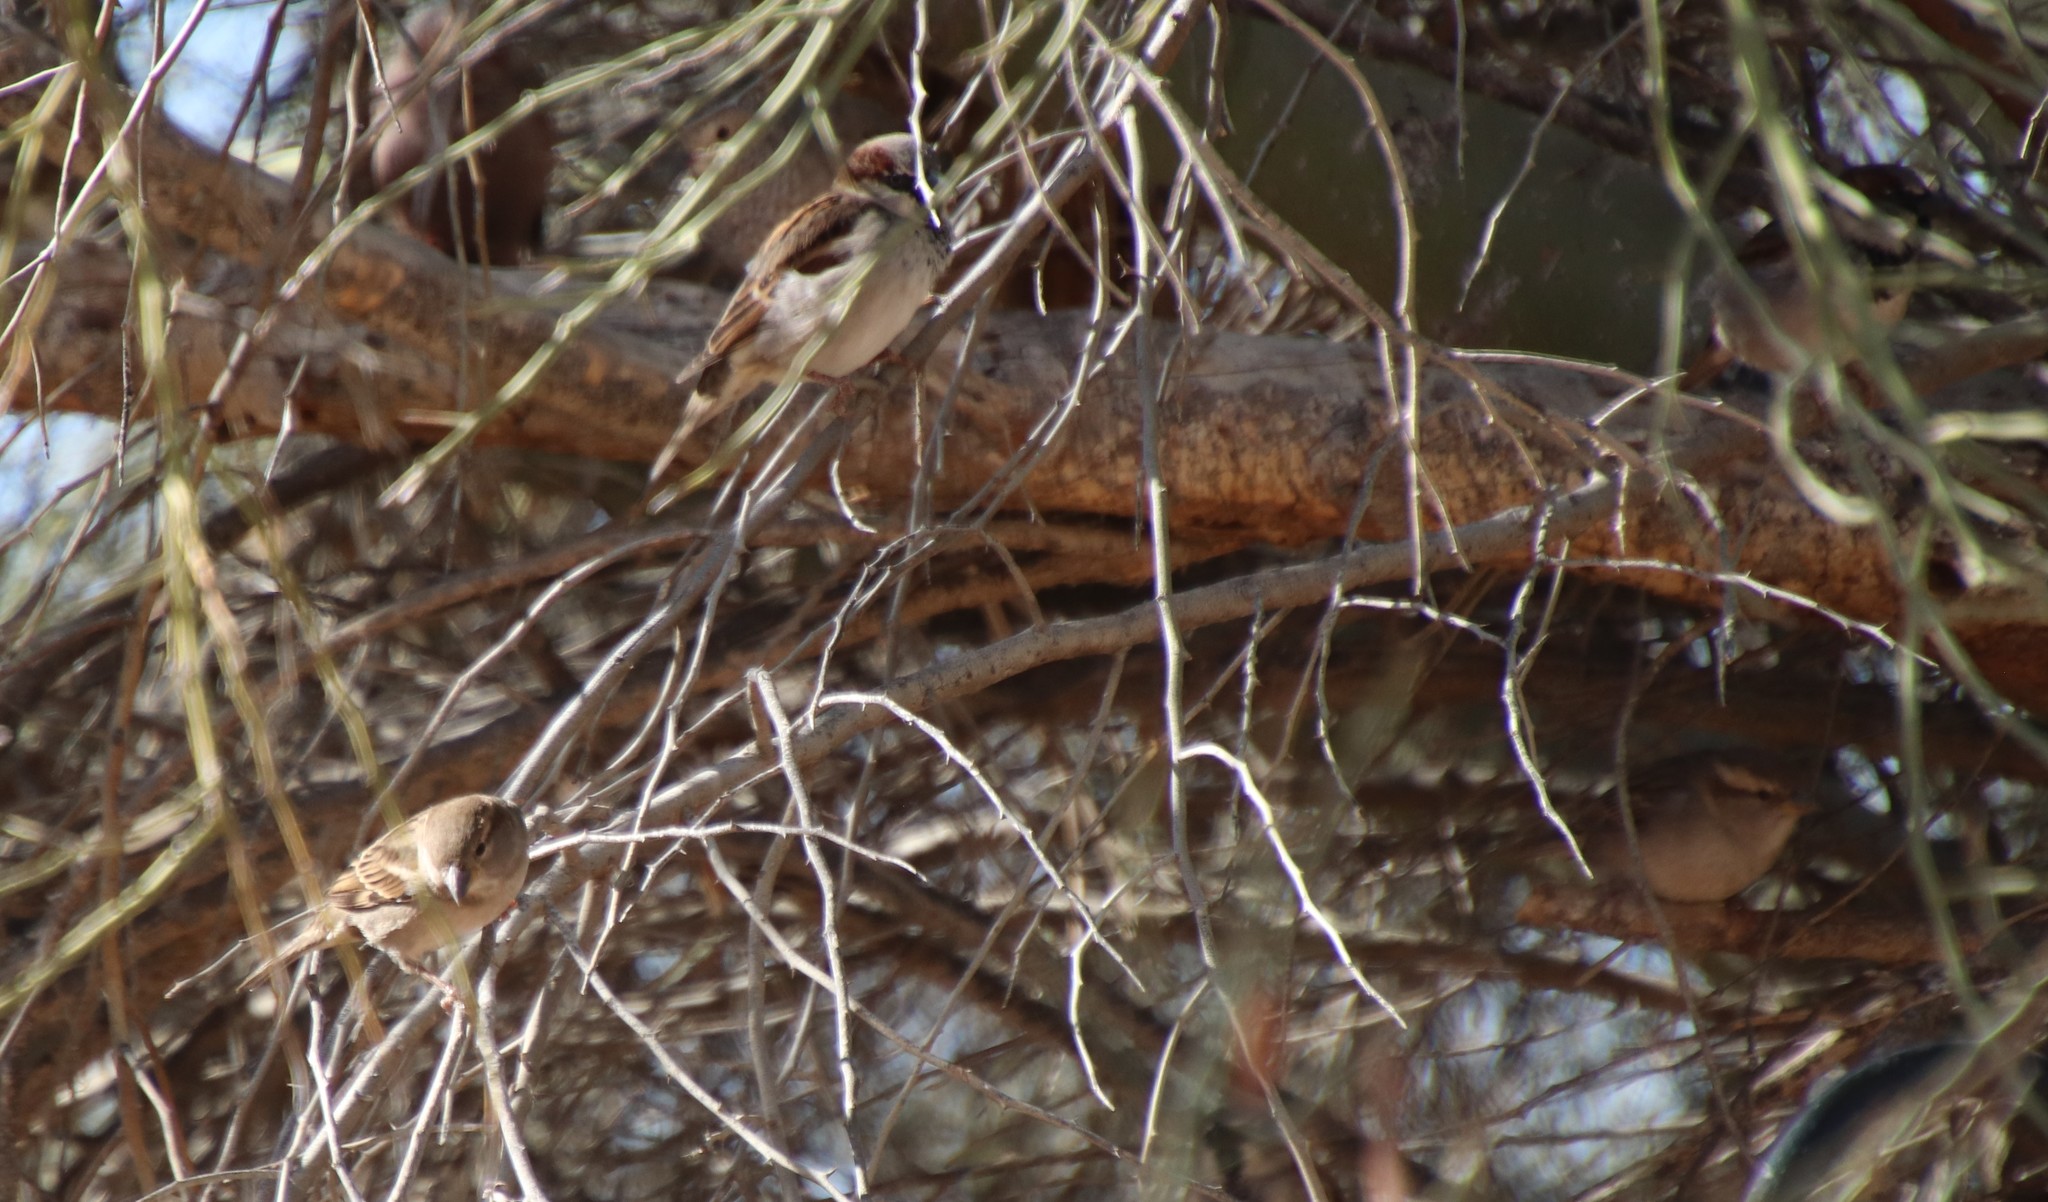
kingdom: Animalia
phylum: Chordata
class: Aves
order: Passeriformes
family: Passeridae
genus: Passer
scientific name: Passer domesticus
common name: House sparrow
